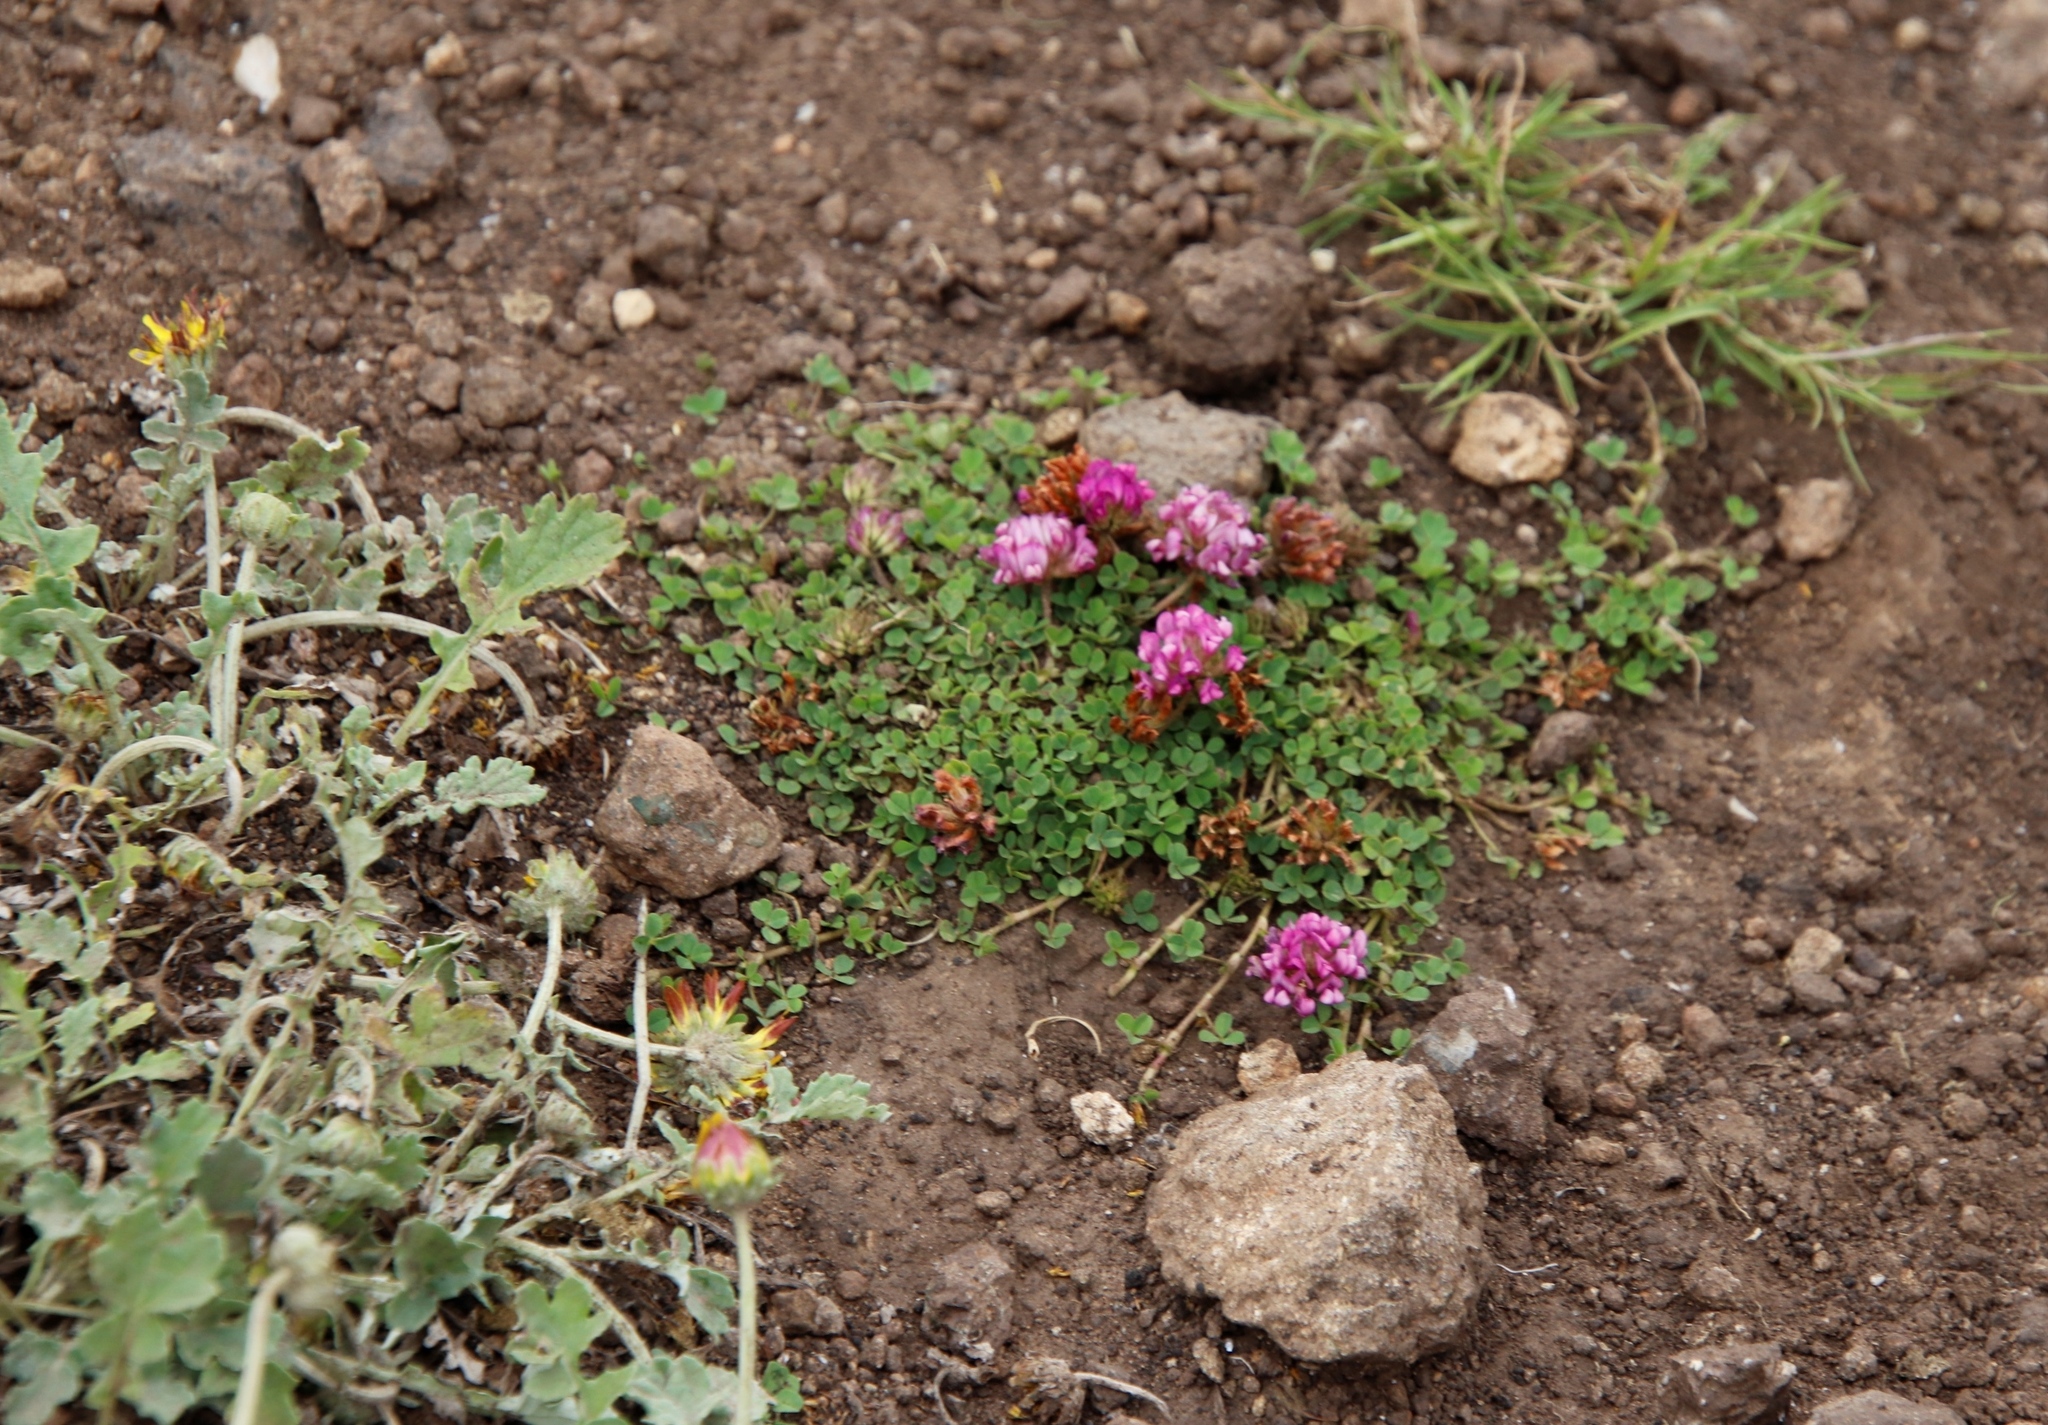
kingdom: Plantae
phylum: Tracheophyta
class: Magnoliopsida
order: Fabales
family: Fabaceae
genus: Trifolium
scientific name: Trifolium burchellianum
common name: Burchell's clover
